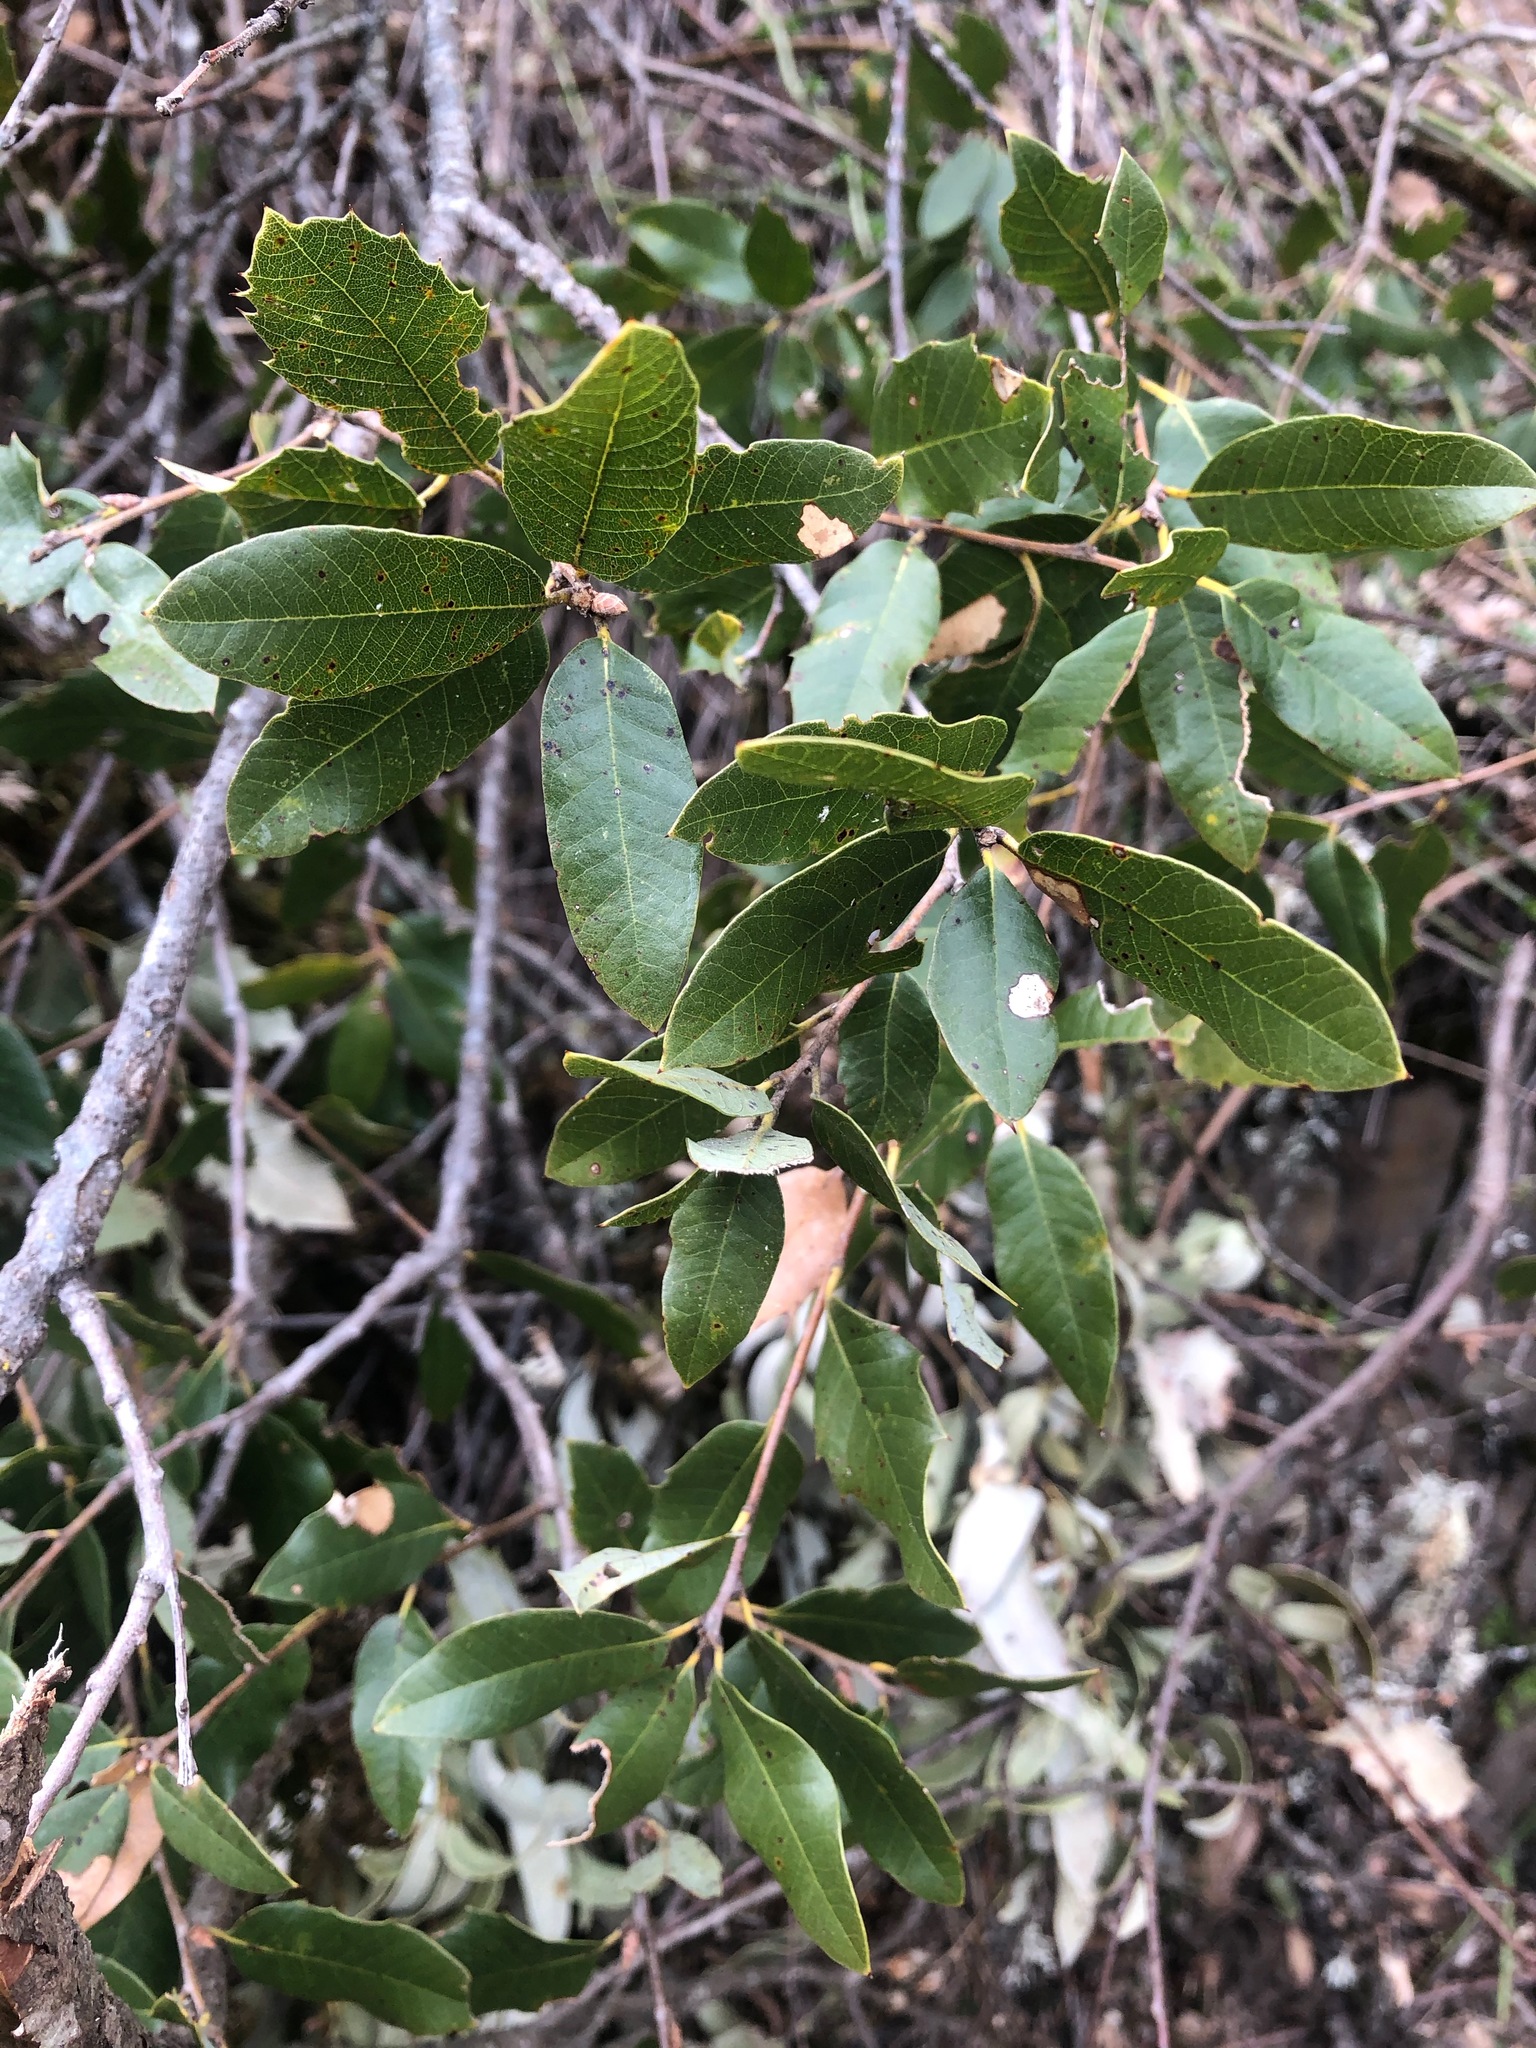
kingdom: Plantae
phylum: Tracheophyta
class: Magnoliopsida
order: Fagales
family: Fagaceae
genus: Quercus
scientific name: Quercus chrysolepis
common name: Canyon live oak
